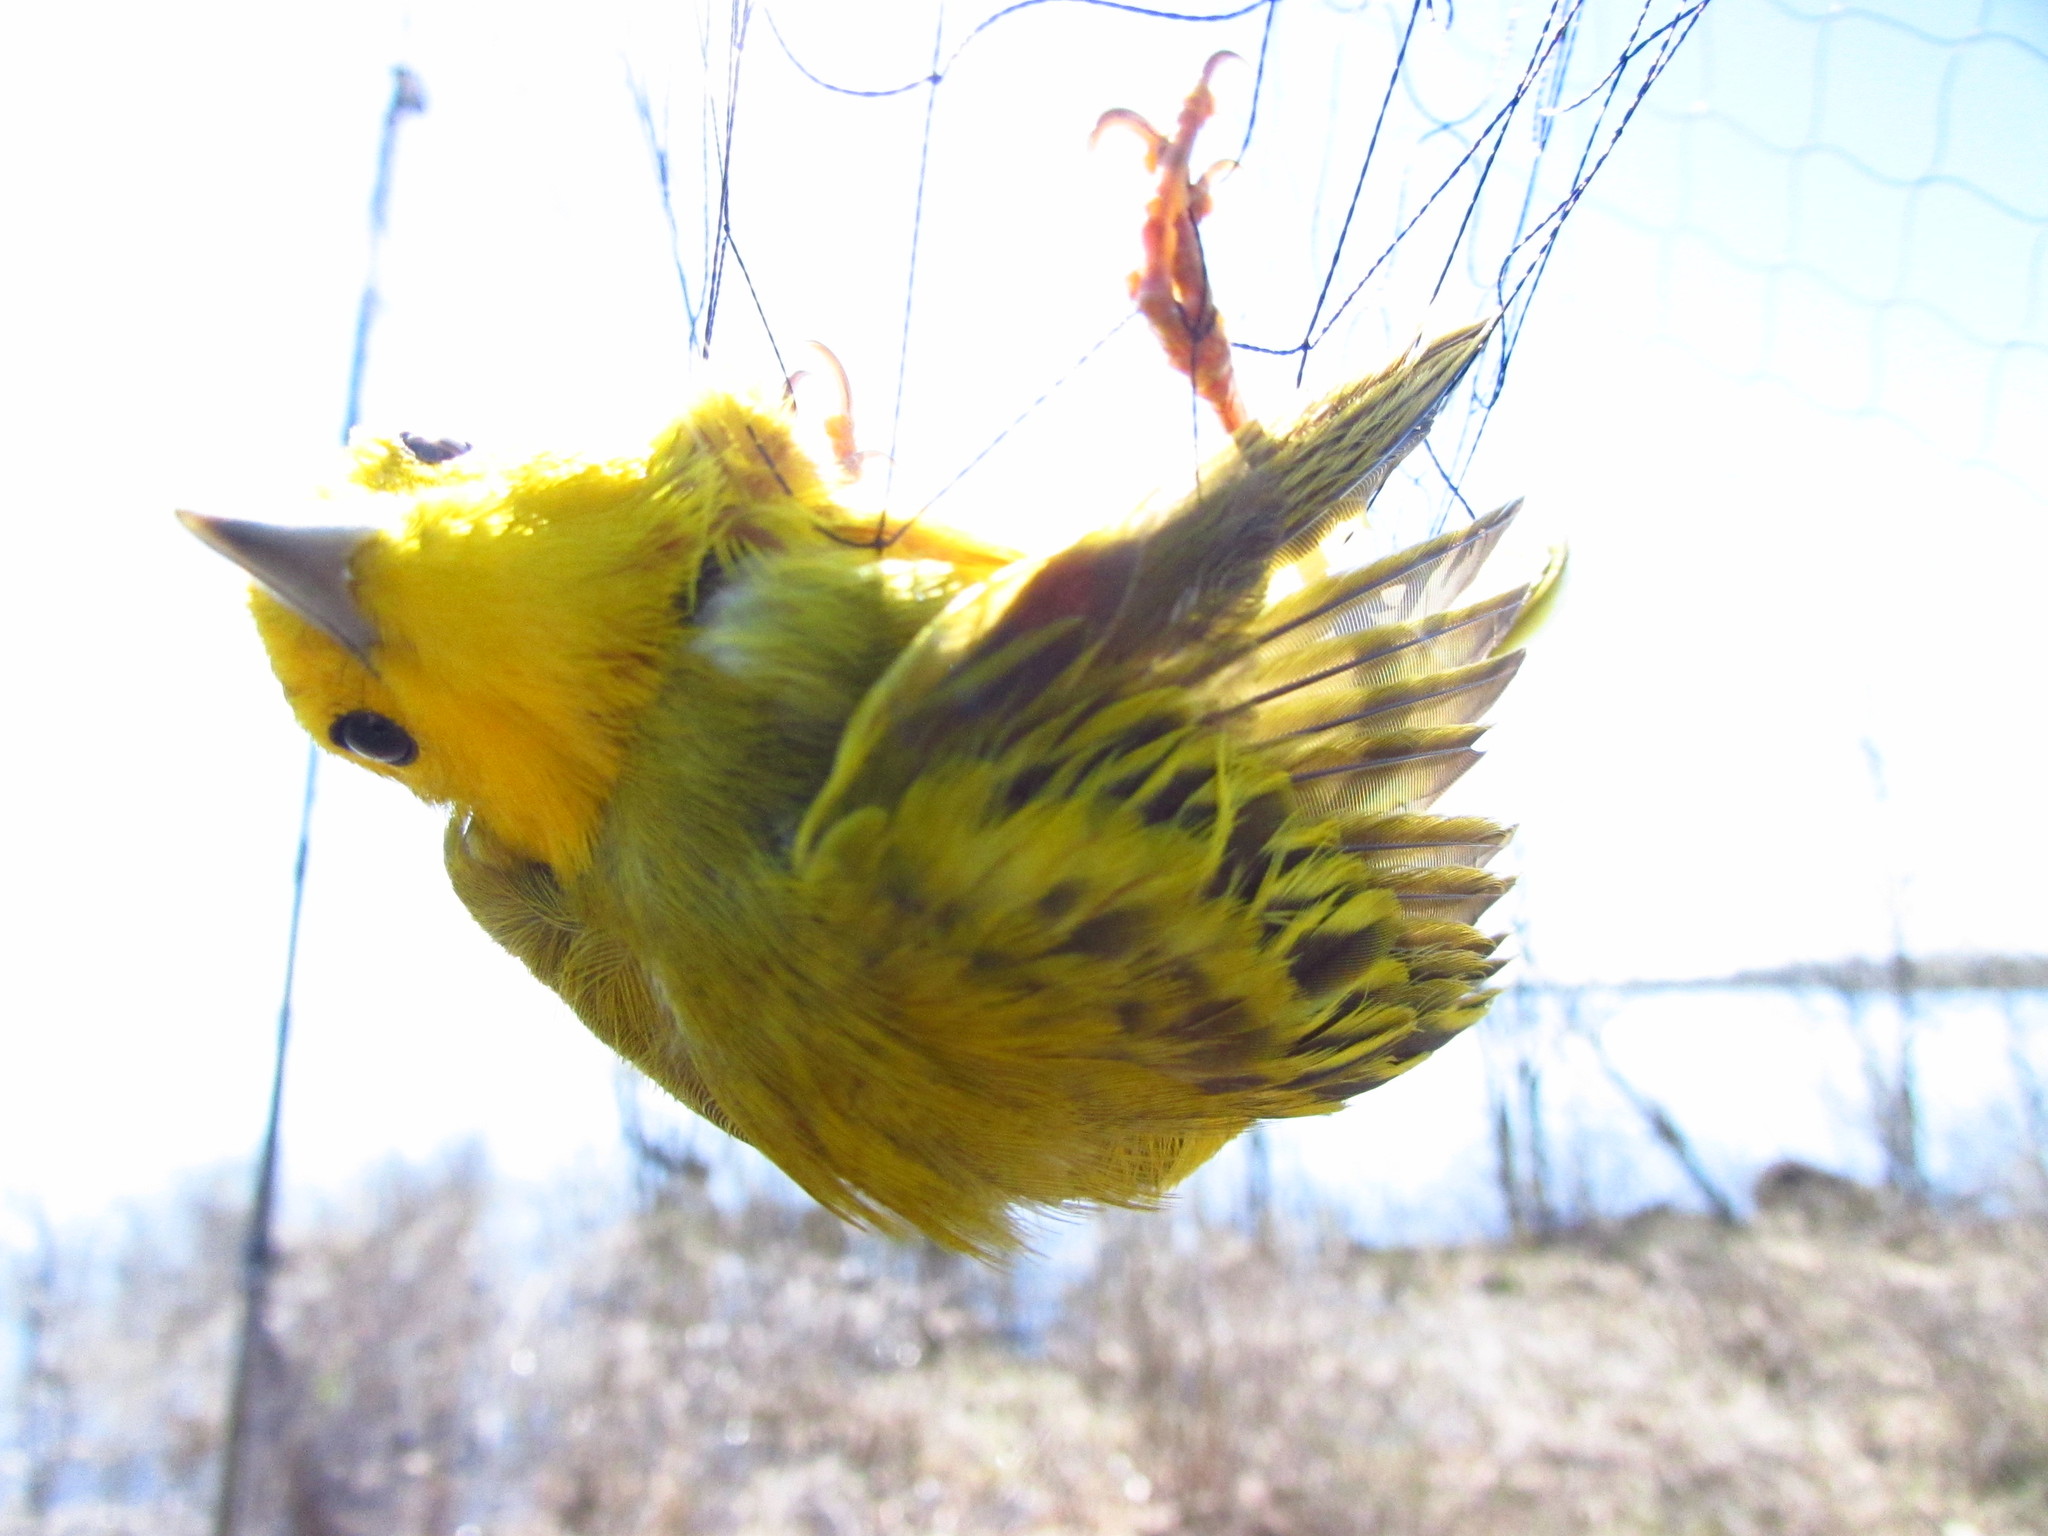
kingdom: Animalia
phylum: Chordata
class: Aves
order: Passeriformes
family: Parulidae
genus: Setophaga
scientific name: Setophaga petechia
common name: Yellow warbler
